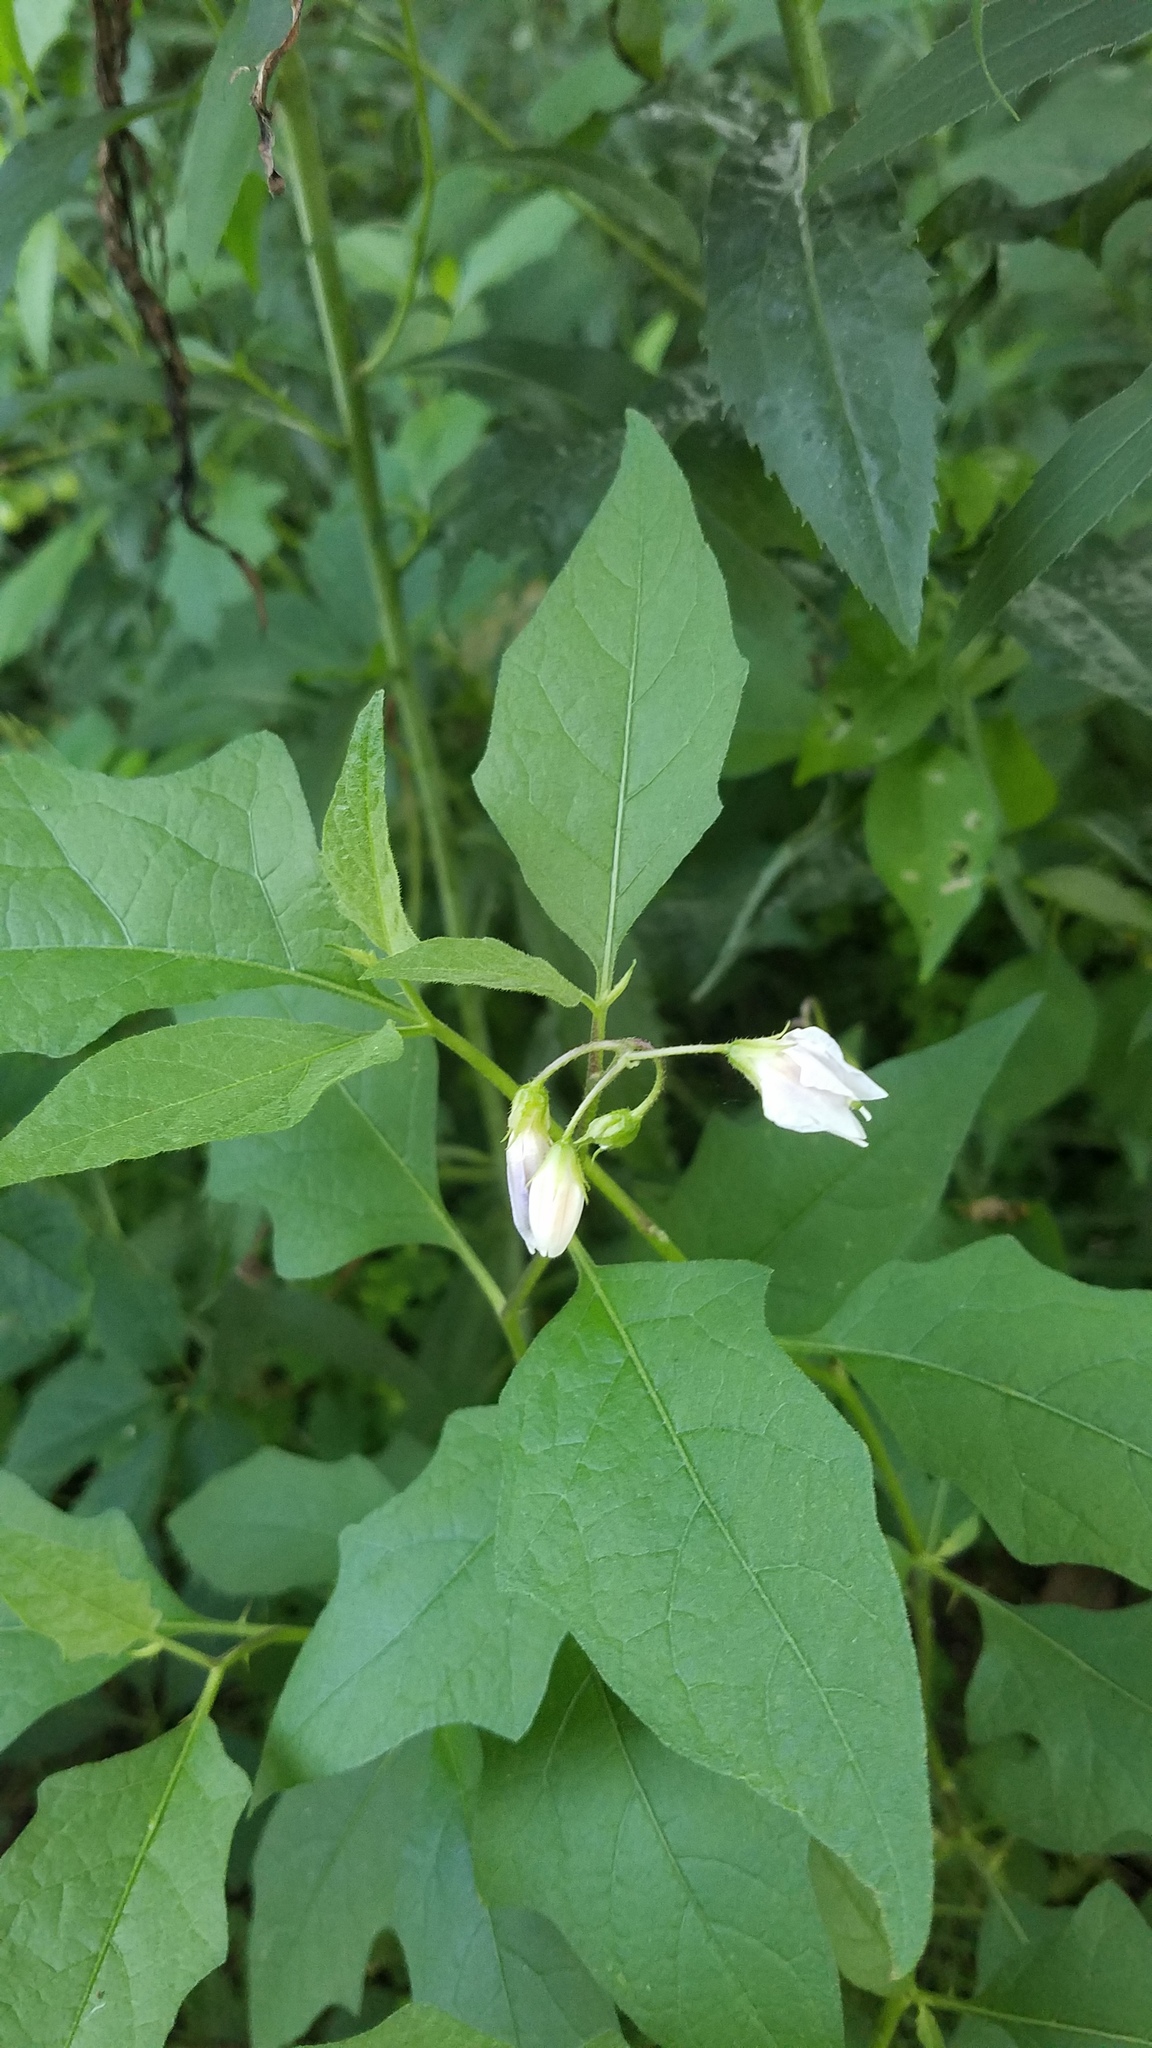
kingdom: Plantae
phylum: Tracheophyta
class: Magnoliopsida
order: Solanales
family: Solanaceae
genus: Solanum
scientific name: Solanum carolinense
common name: Horse-nettle
